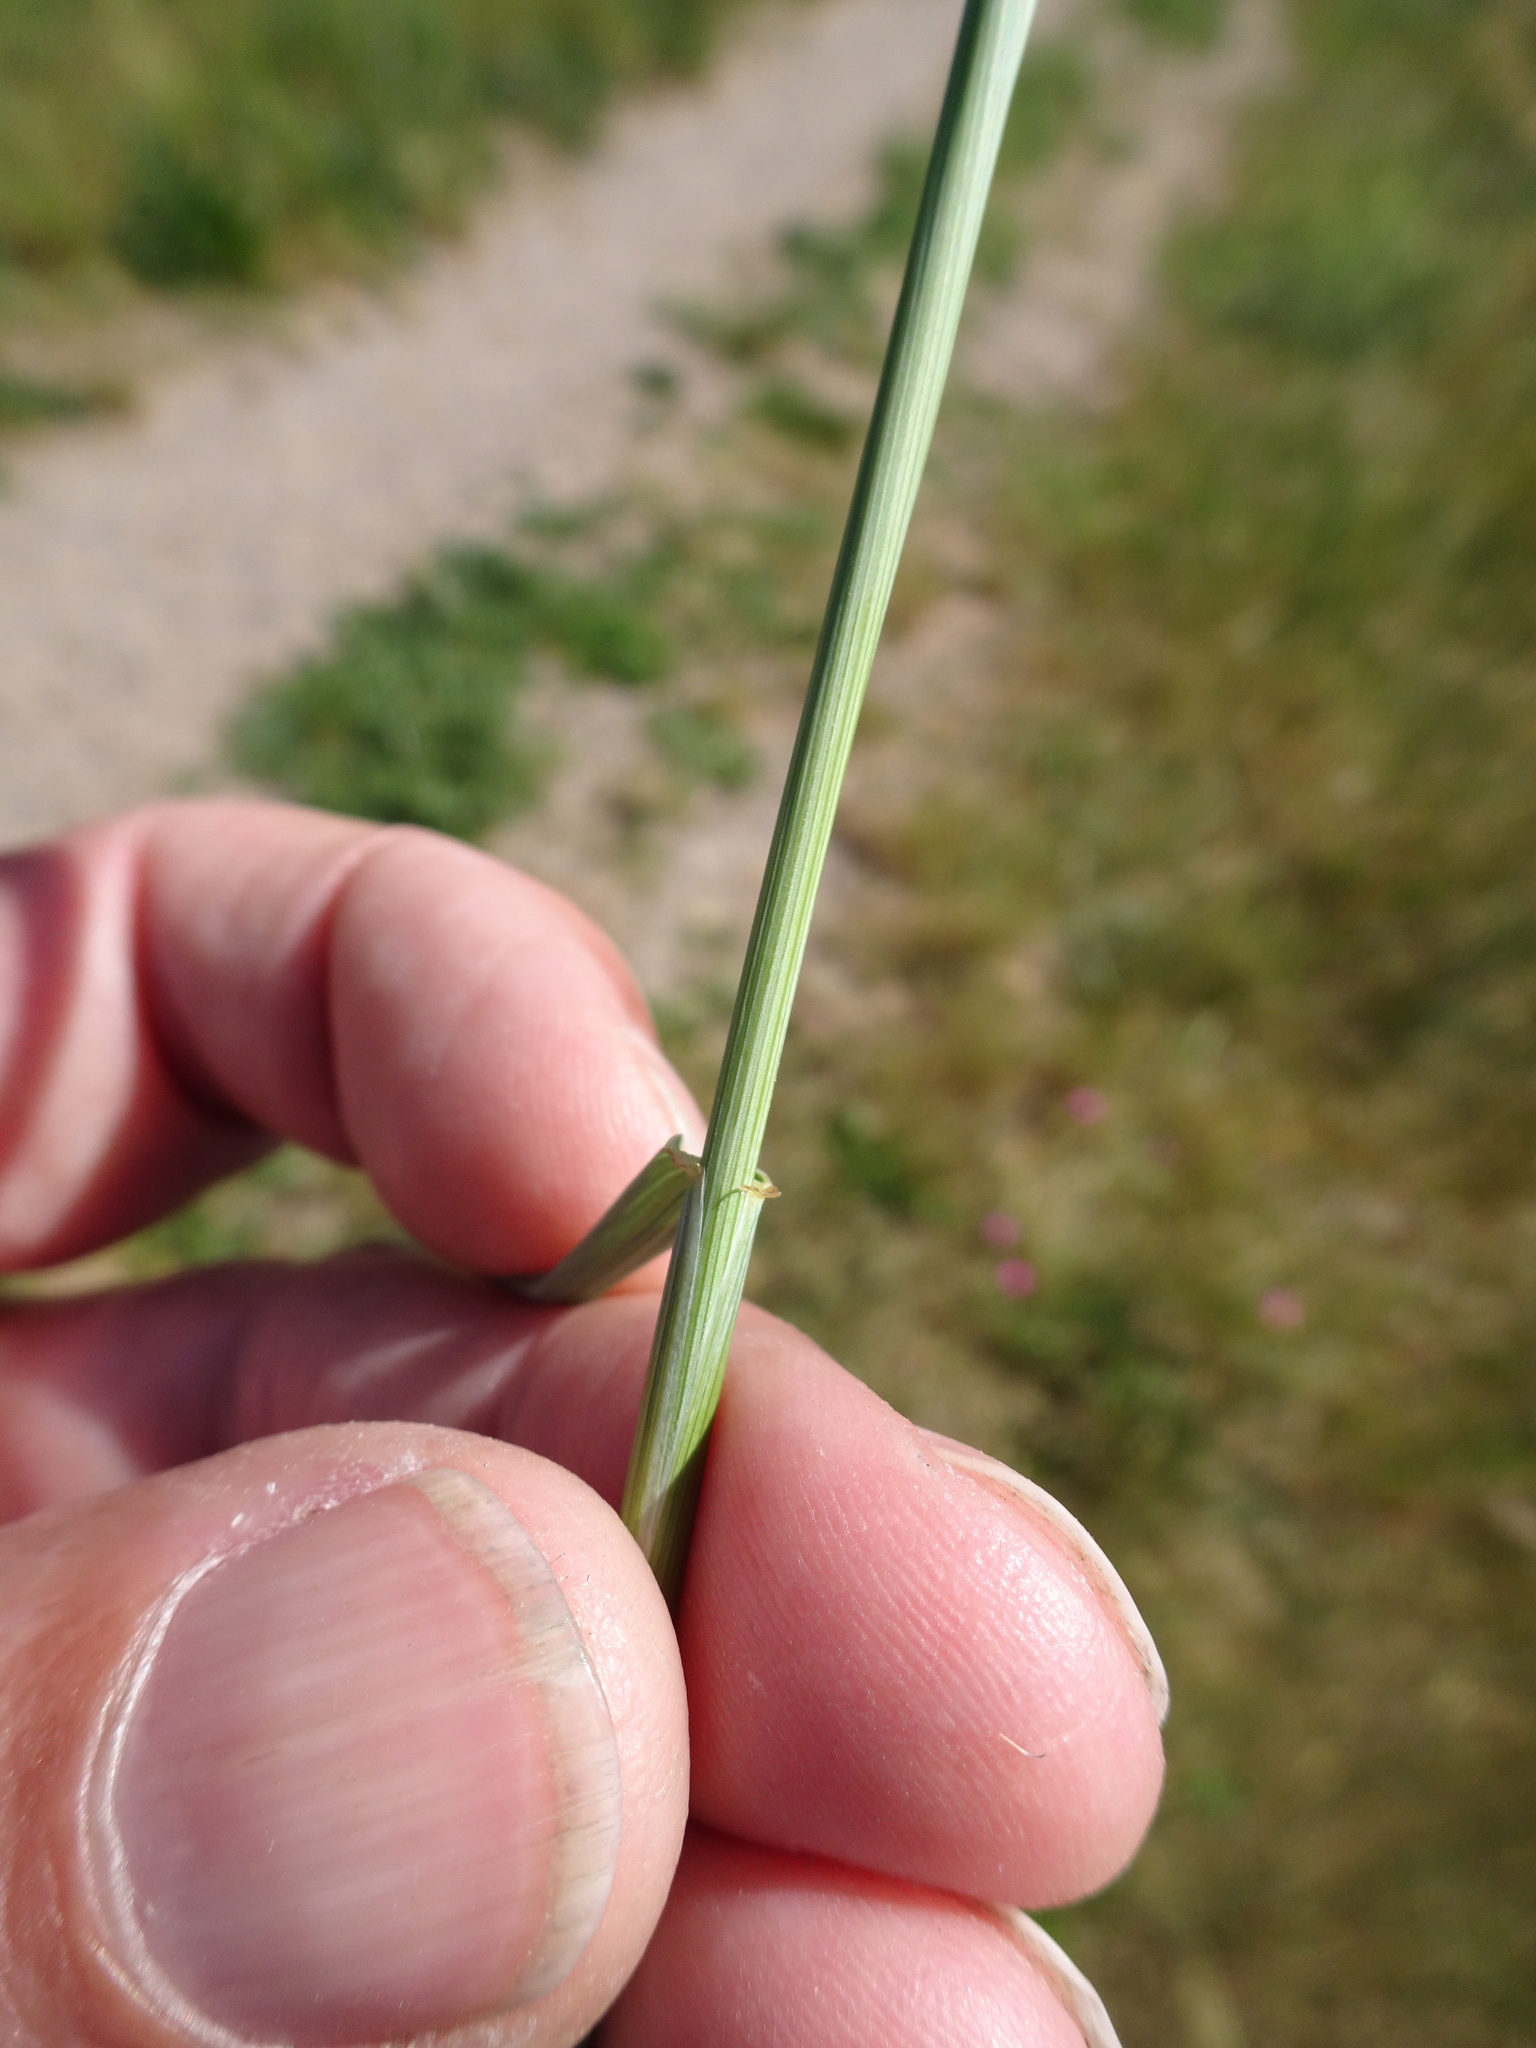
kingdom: Plantae
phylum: Tracheophyta
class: Liliopsida
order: Poales
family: Poaceae
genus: Elymus
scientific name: Elymus repens
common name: Quackgrass
